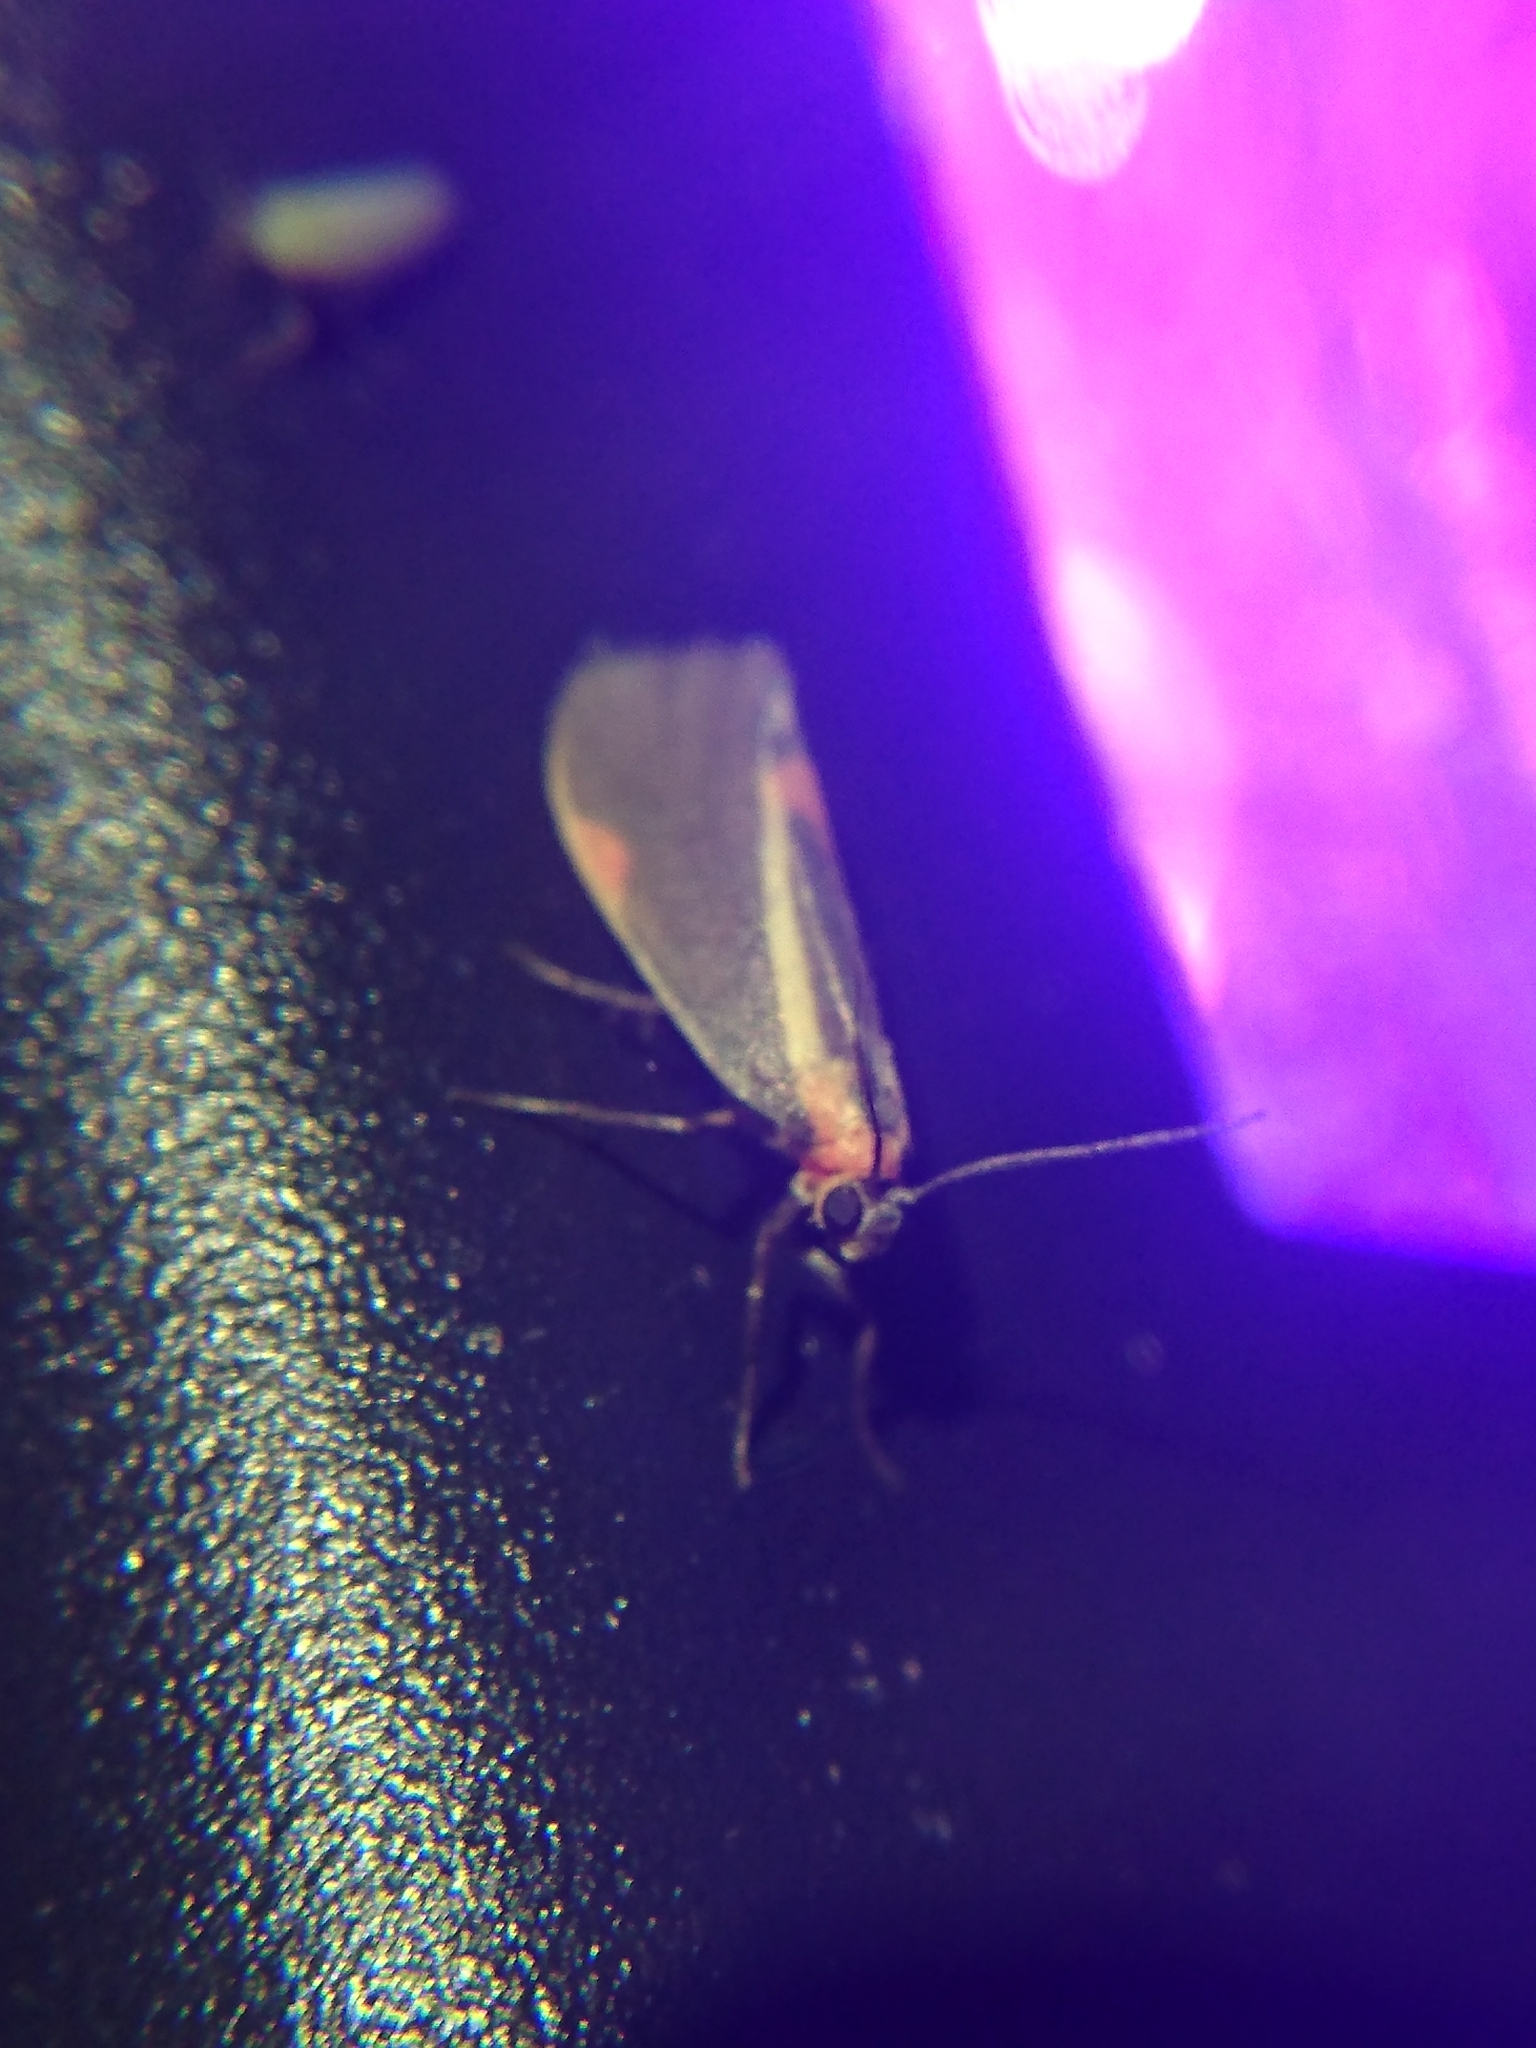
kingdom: Animalia
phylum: Arthropoda
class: Insecta
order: Lepidoptera
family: Erebidae
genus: Cisthene
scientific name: Cisthene subjecta
